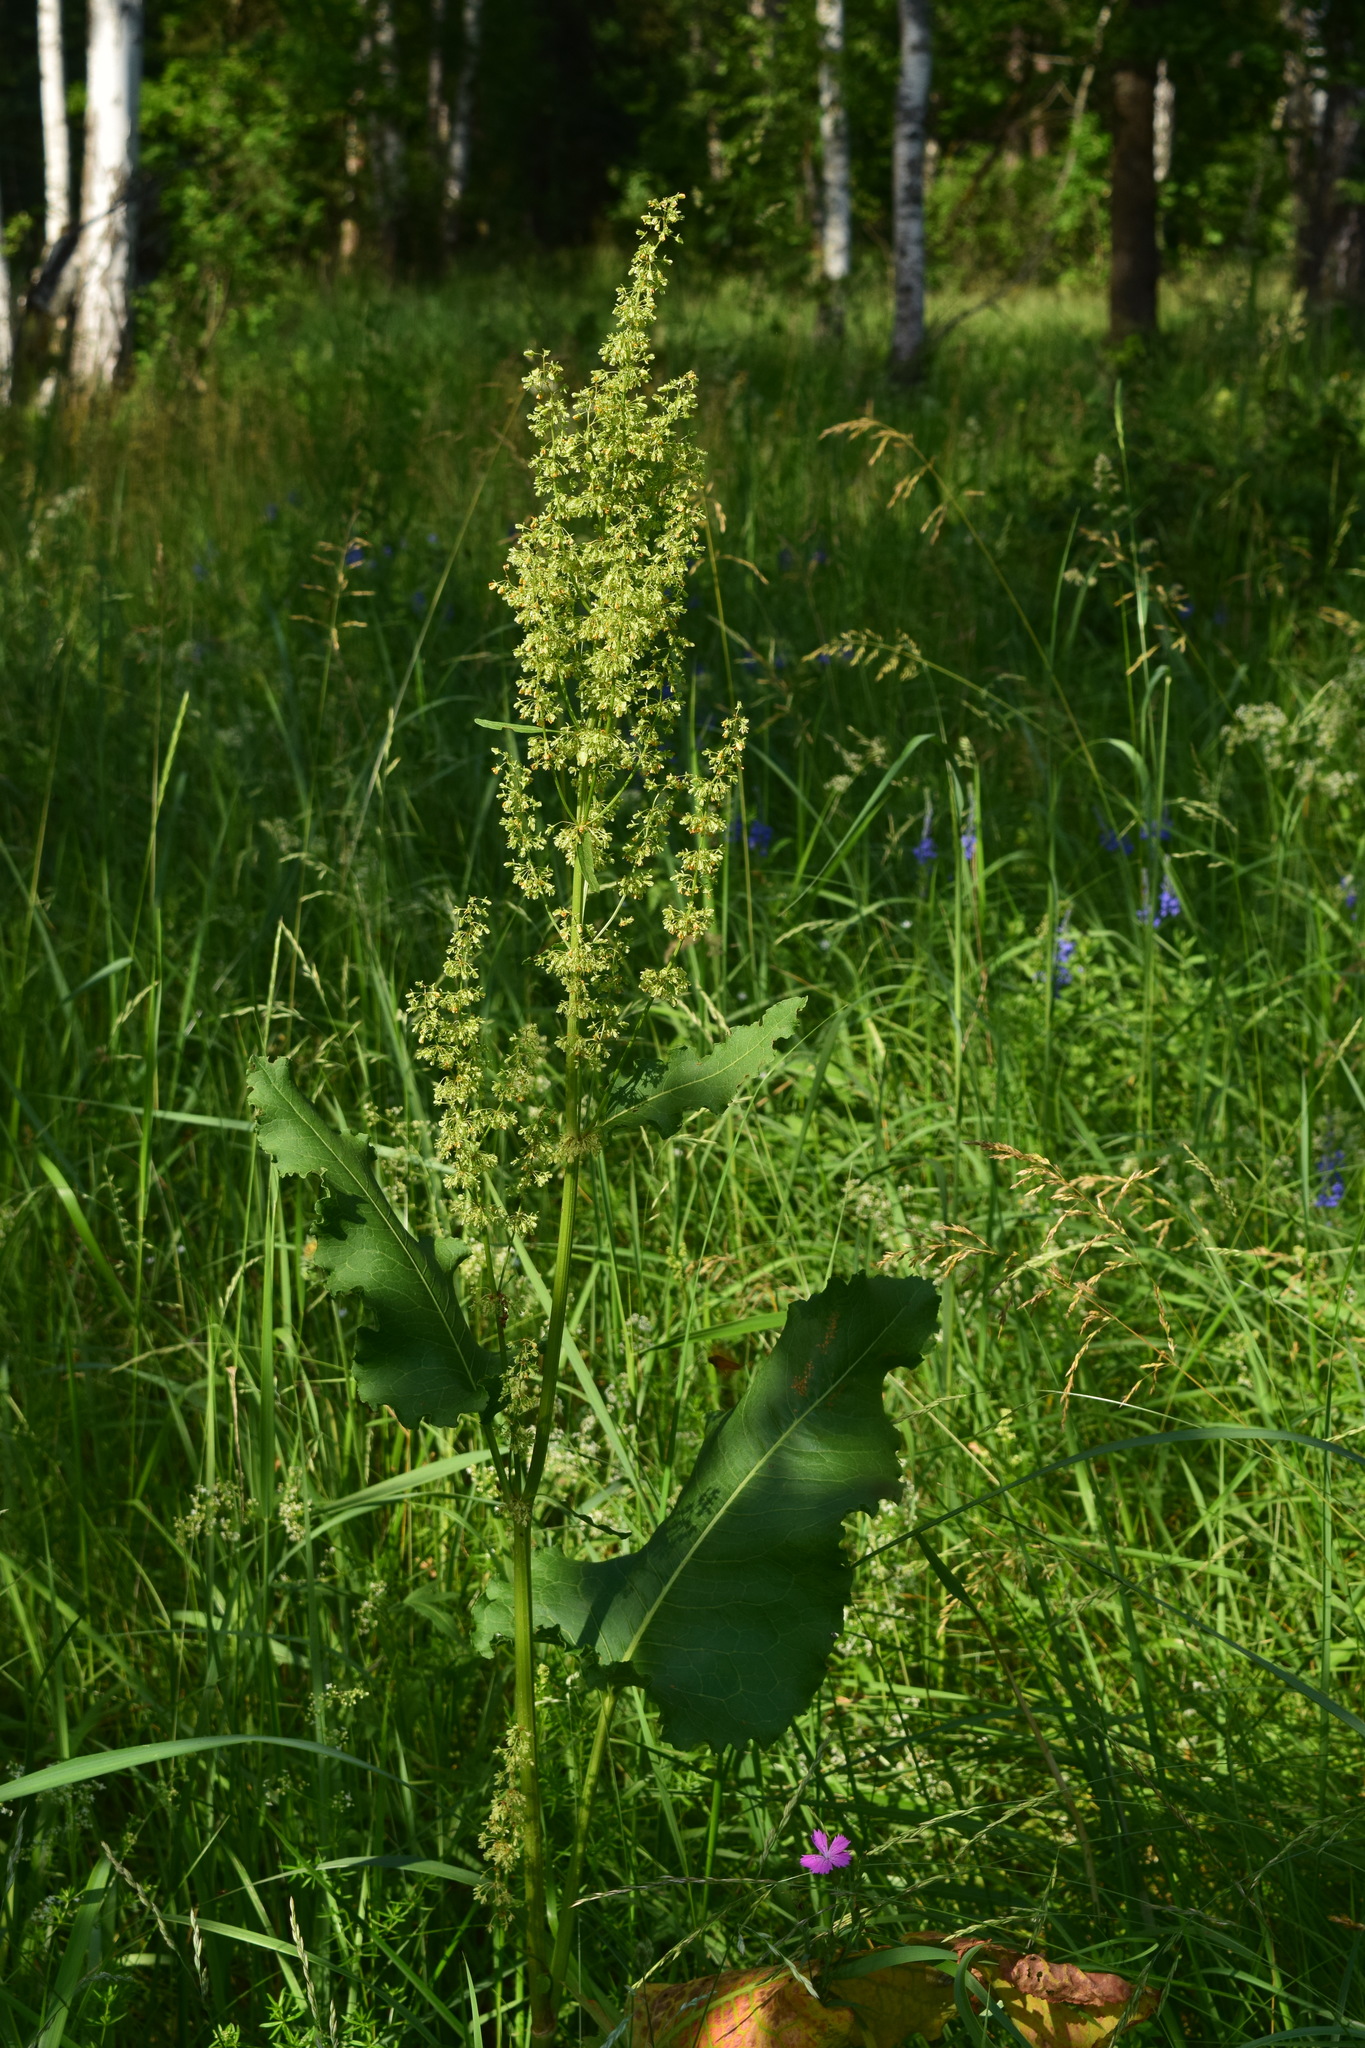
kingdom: Plantae
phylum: Tracheophyta
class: Magnoliopsida
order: Caryophyllales
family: Polygonaceae
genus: Rumex
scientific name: Rumex confertus
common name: Russian dock
